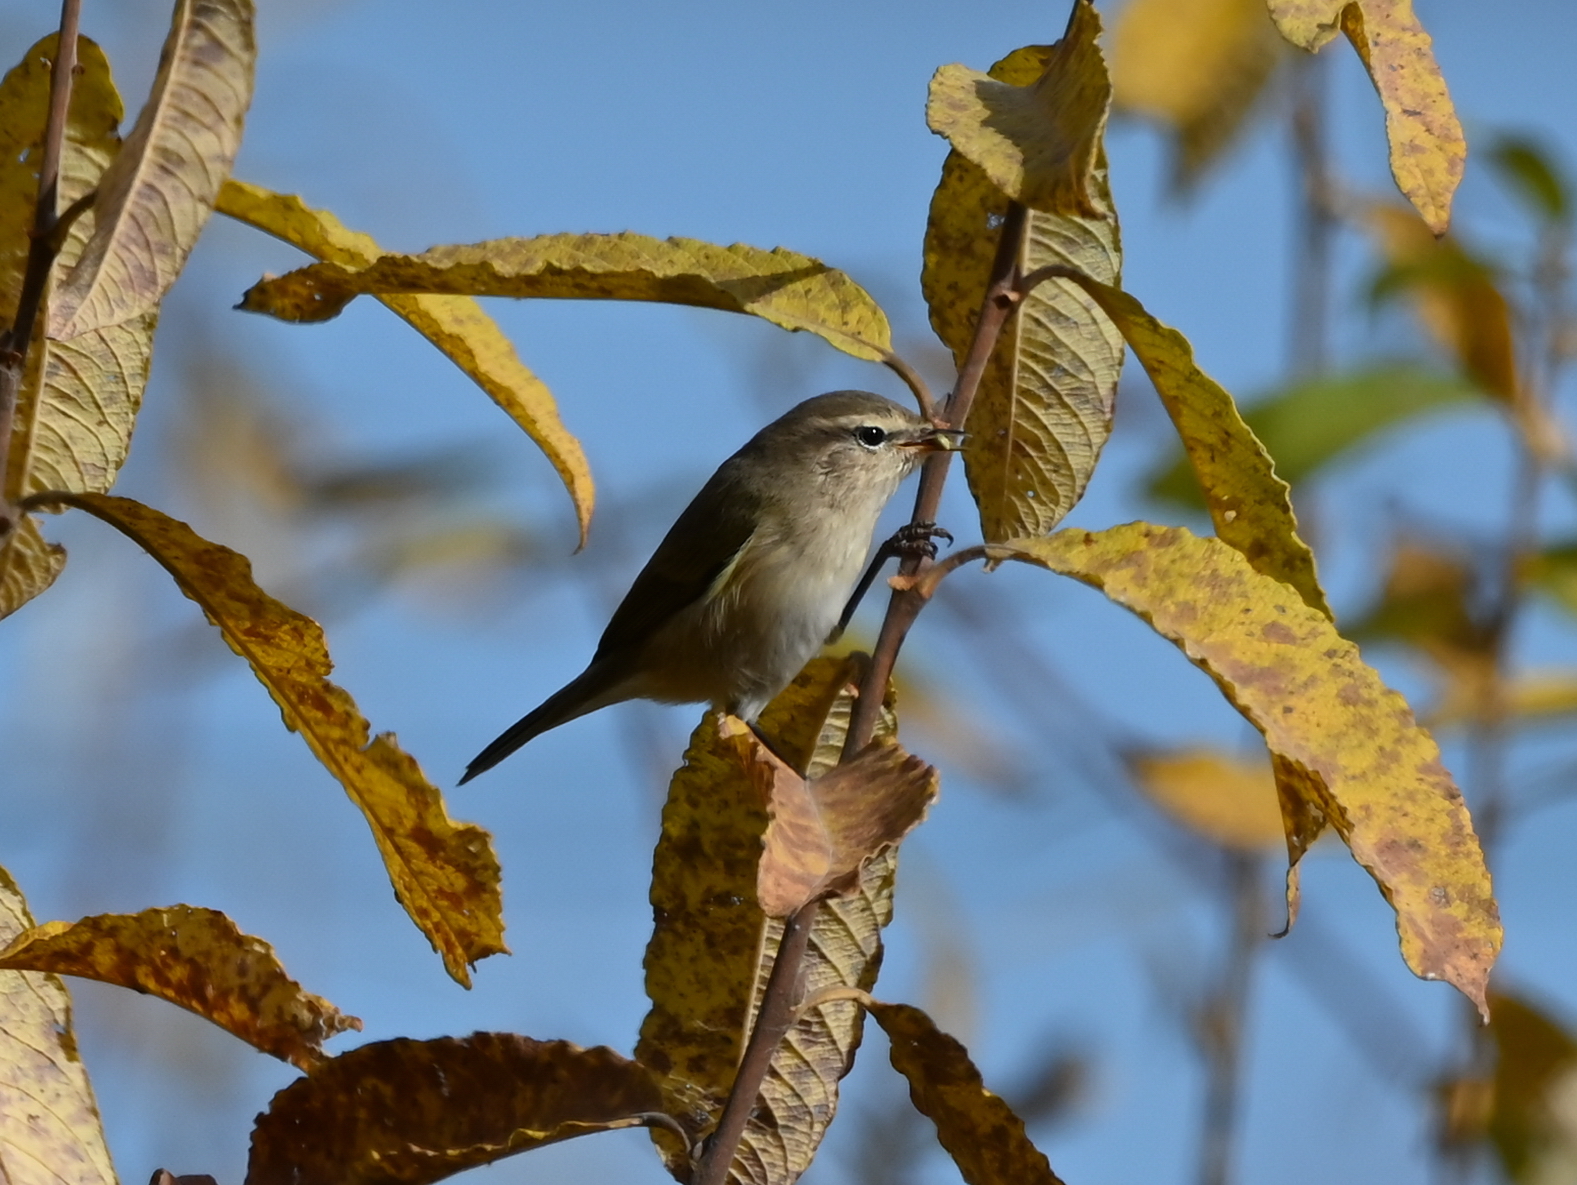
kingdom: Animalia
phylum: Chordata
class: Aves
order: Passeriformes
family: Phylloscopidae
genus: Phylloscopus
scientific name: Phylloscopus collybita
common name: Common chiffchaff
